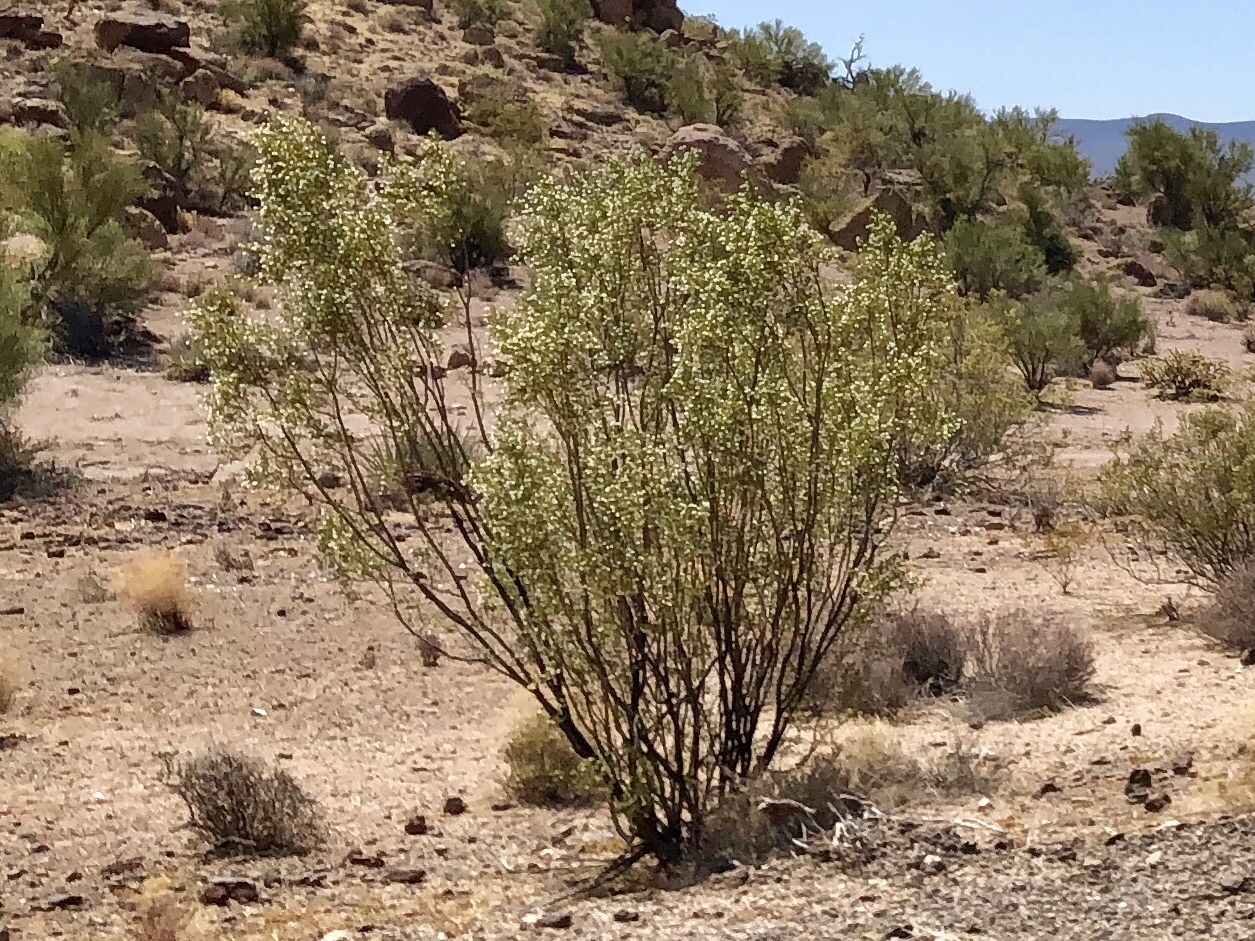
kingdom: Plantae
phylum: Tracheophyta
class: Magnoliopsida
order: Zygophyllales
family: Zygophyllaceae
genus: Larrea
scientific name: Larrea tridentata
